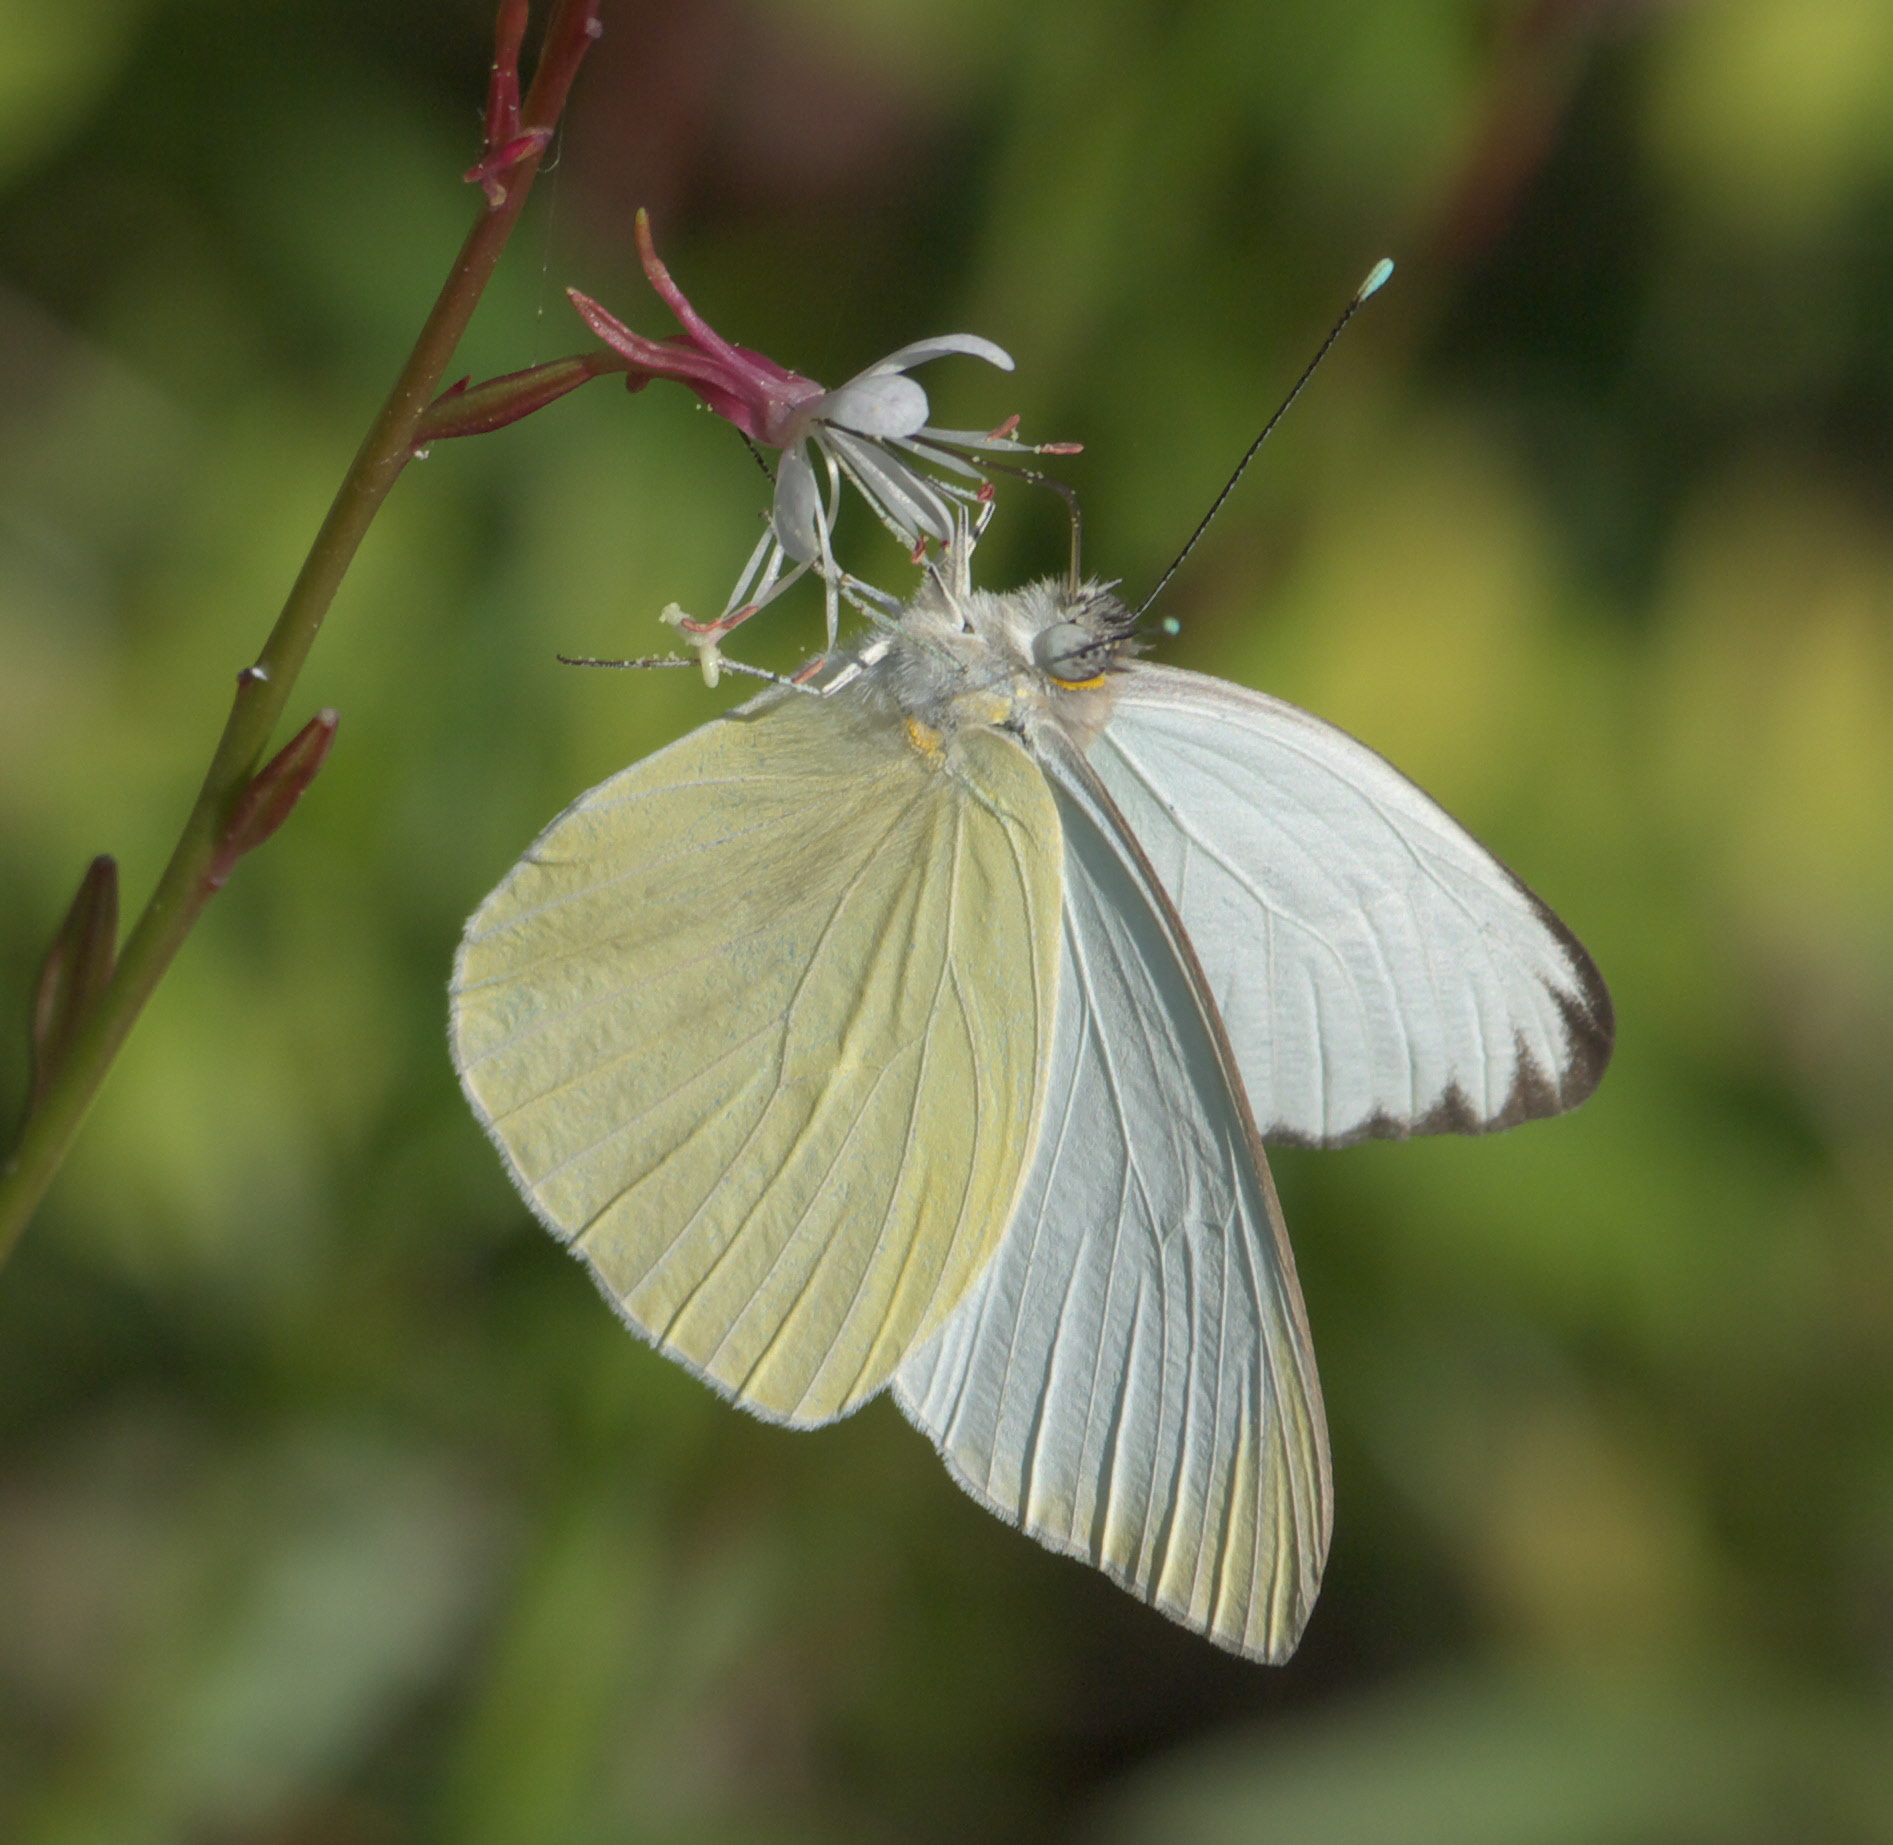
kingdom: Animalia
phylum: Arthropoda
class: Insecta
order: Lepidoptera
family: Pieridae
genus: Ascia
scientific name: Ascia monuste
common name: Great southern white
